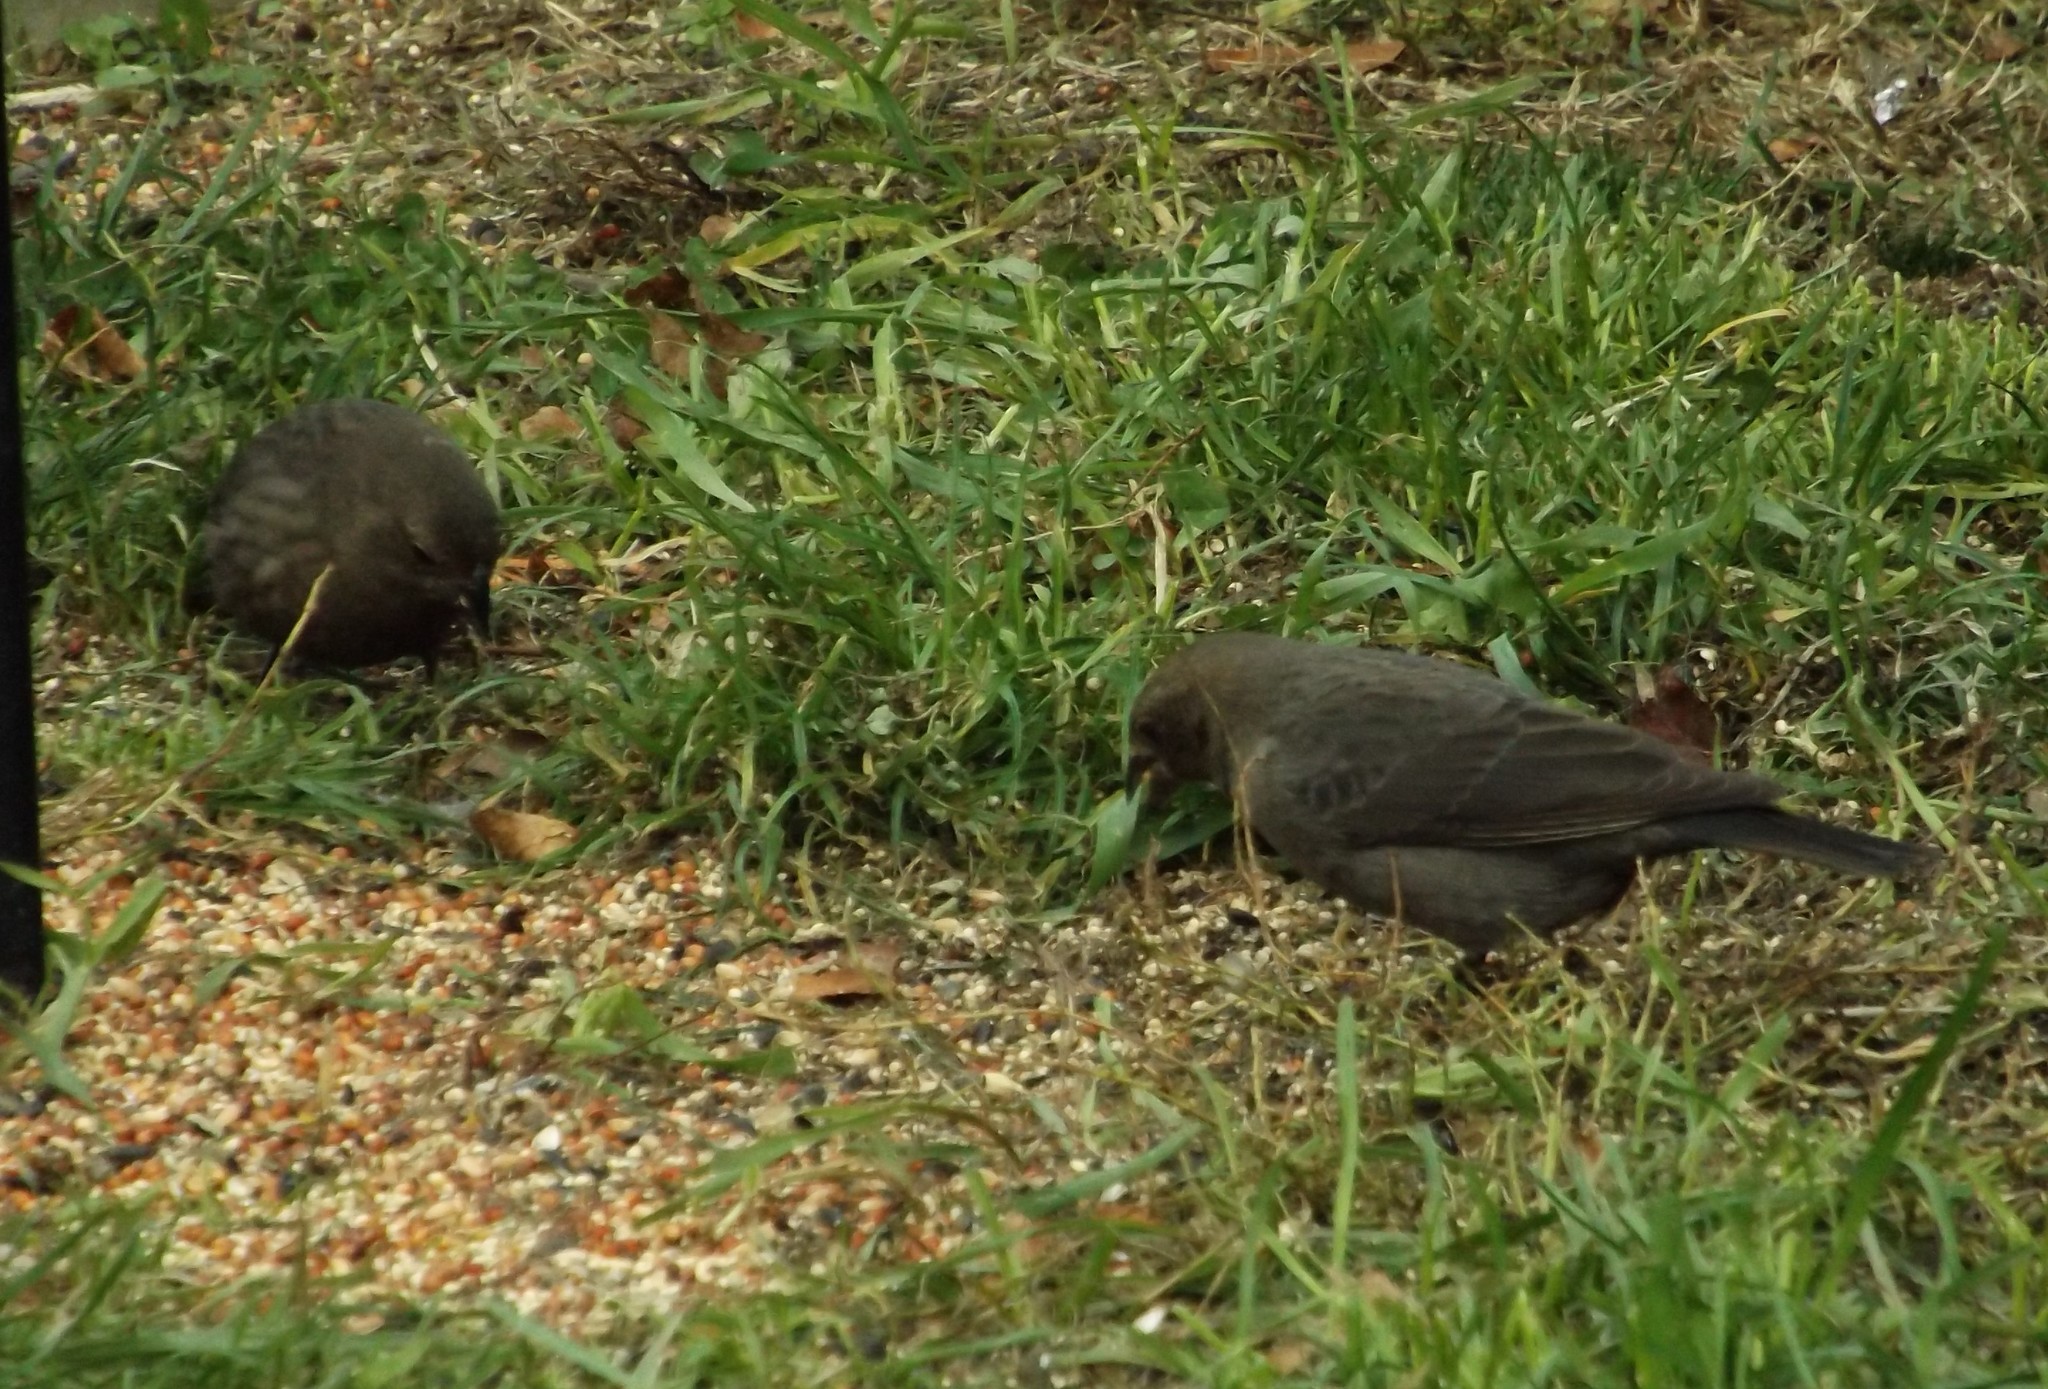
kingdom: Animalia
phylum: Chordata
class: Aves
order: Passeriformes
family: Icteridae
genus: Molothrus
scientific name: Molothrus ater
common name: Brown-headed cowbird
